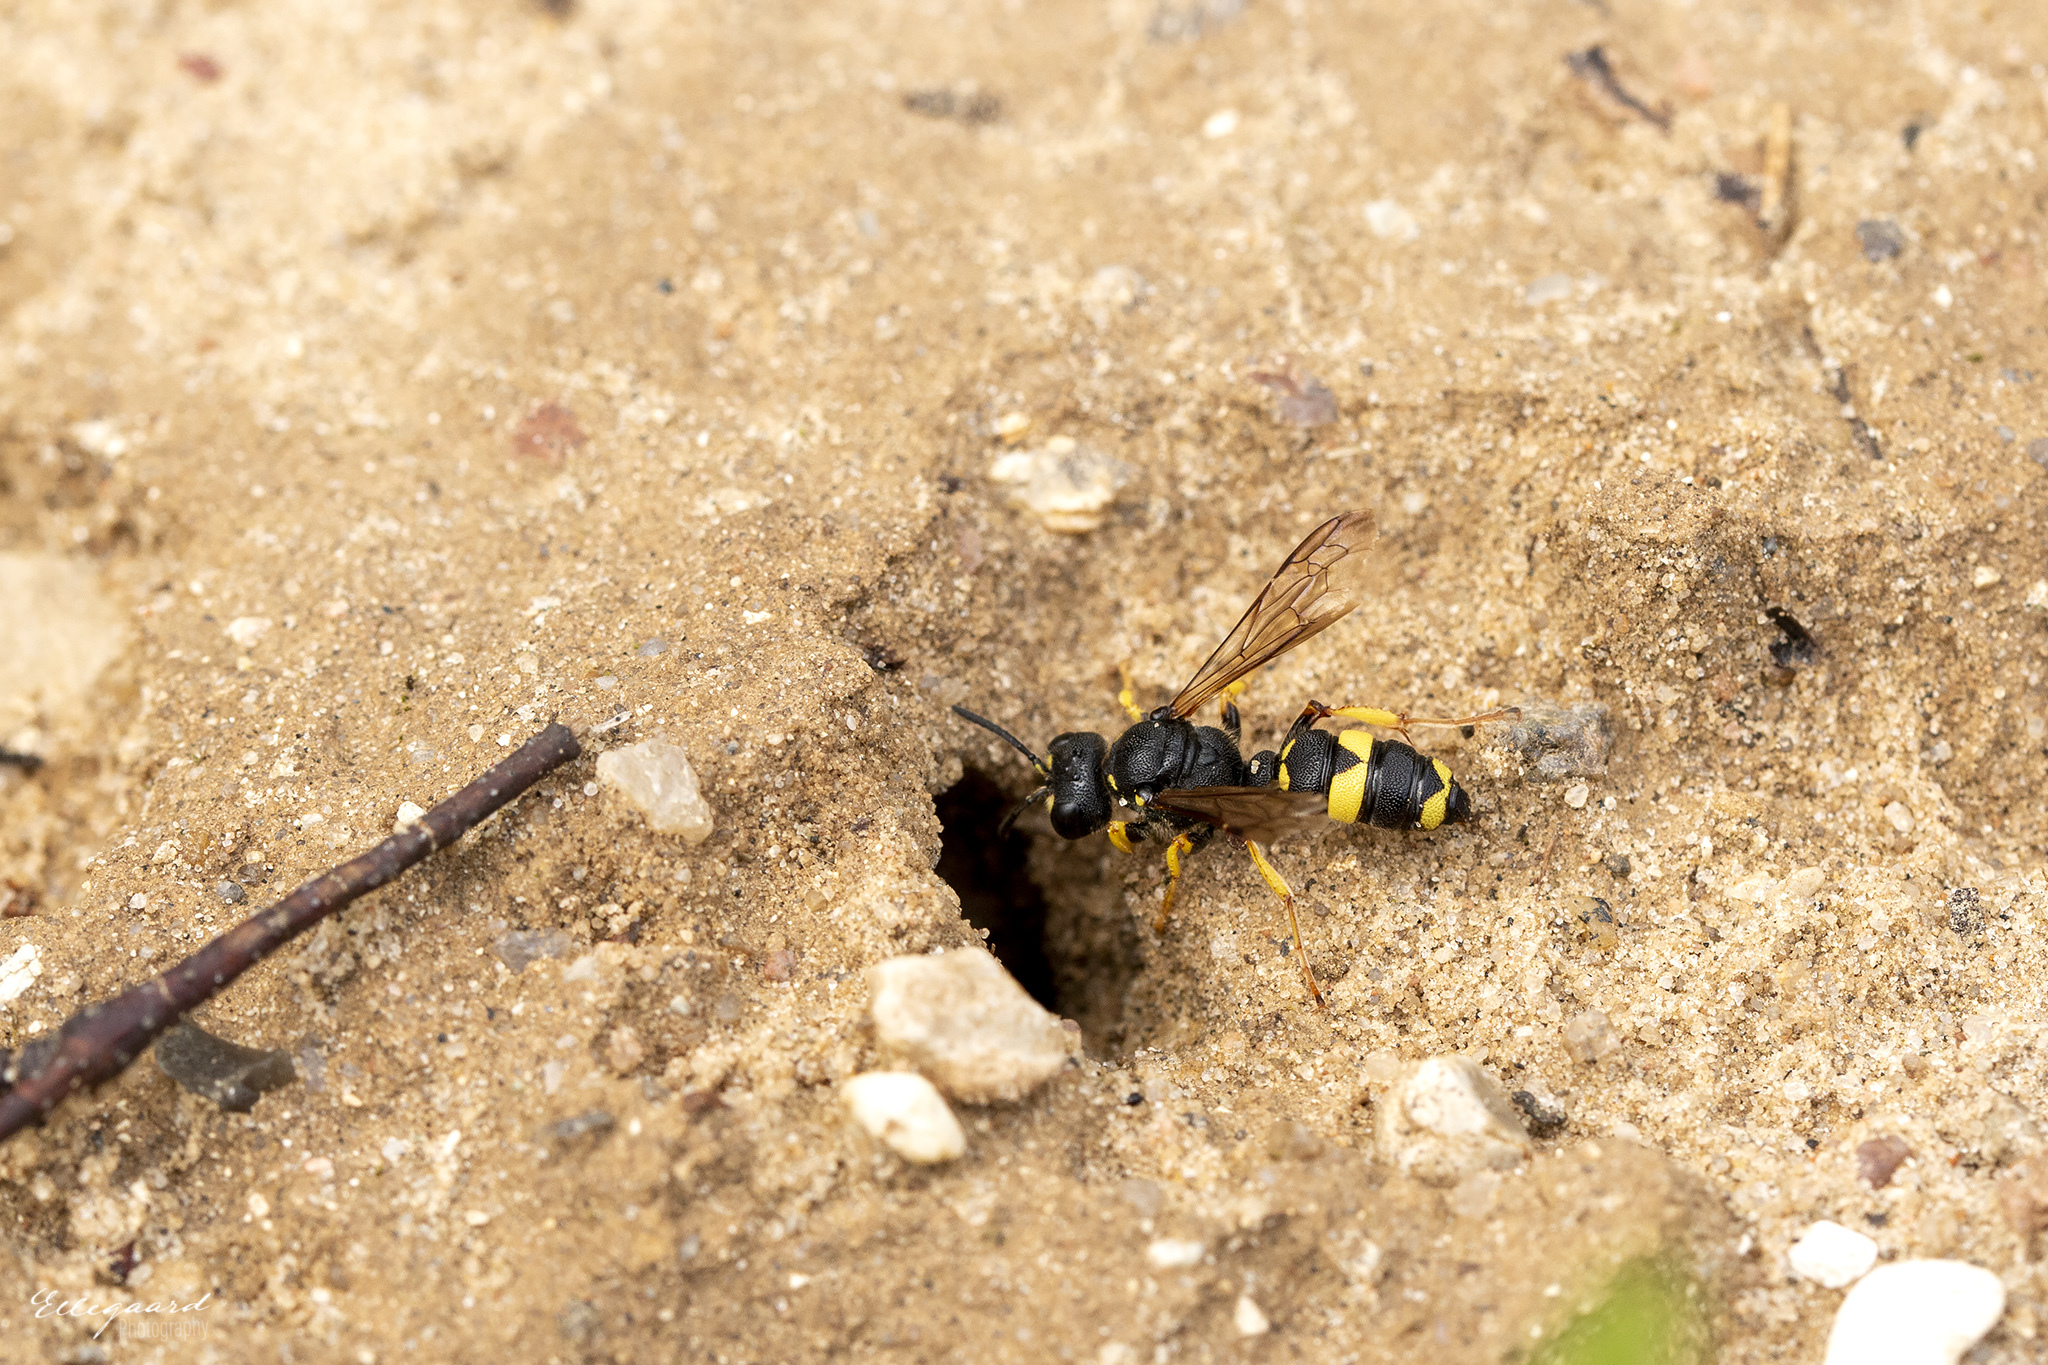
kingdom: Animalia
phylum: Arthropoda
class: Insecta
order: Hymenoptera
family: Crabronidae
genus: Cerceris
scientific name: Cerceris rybyensis
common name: Ornate tailed digger wasp
